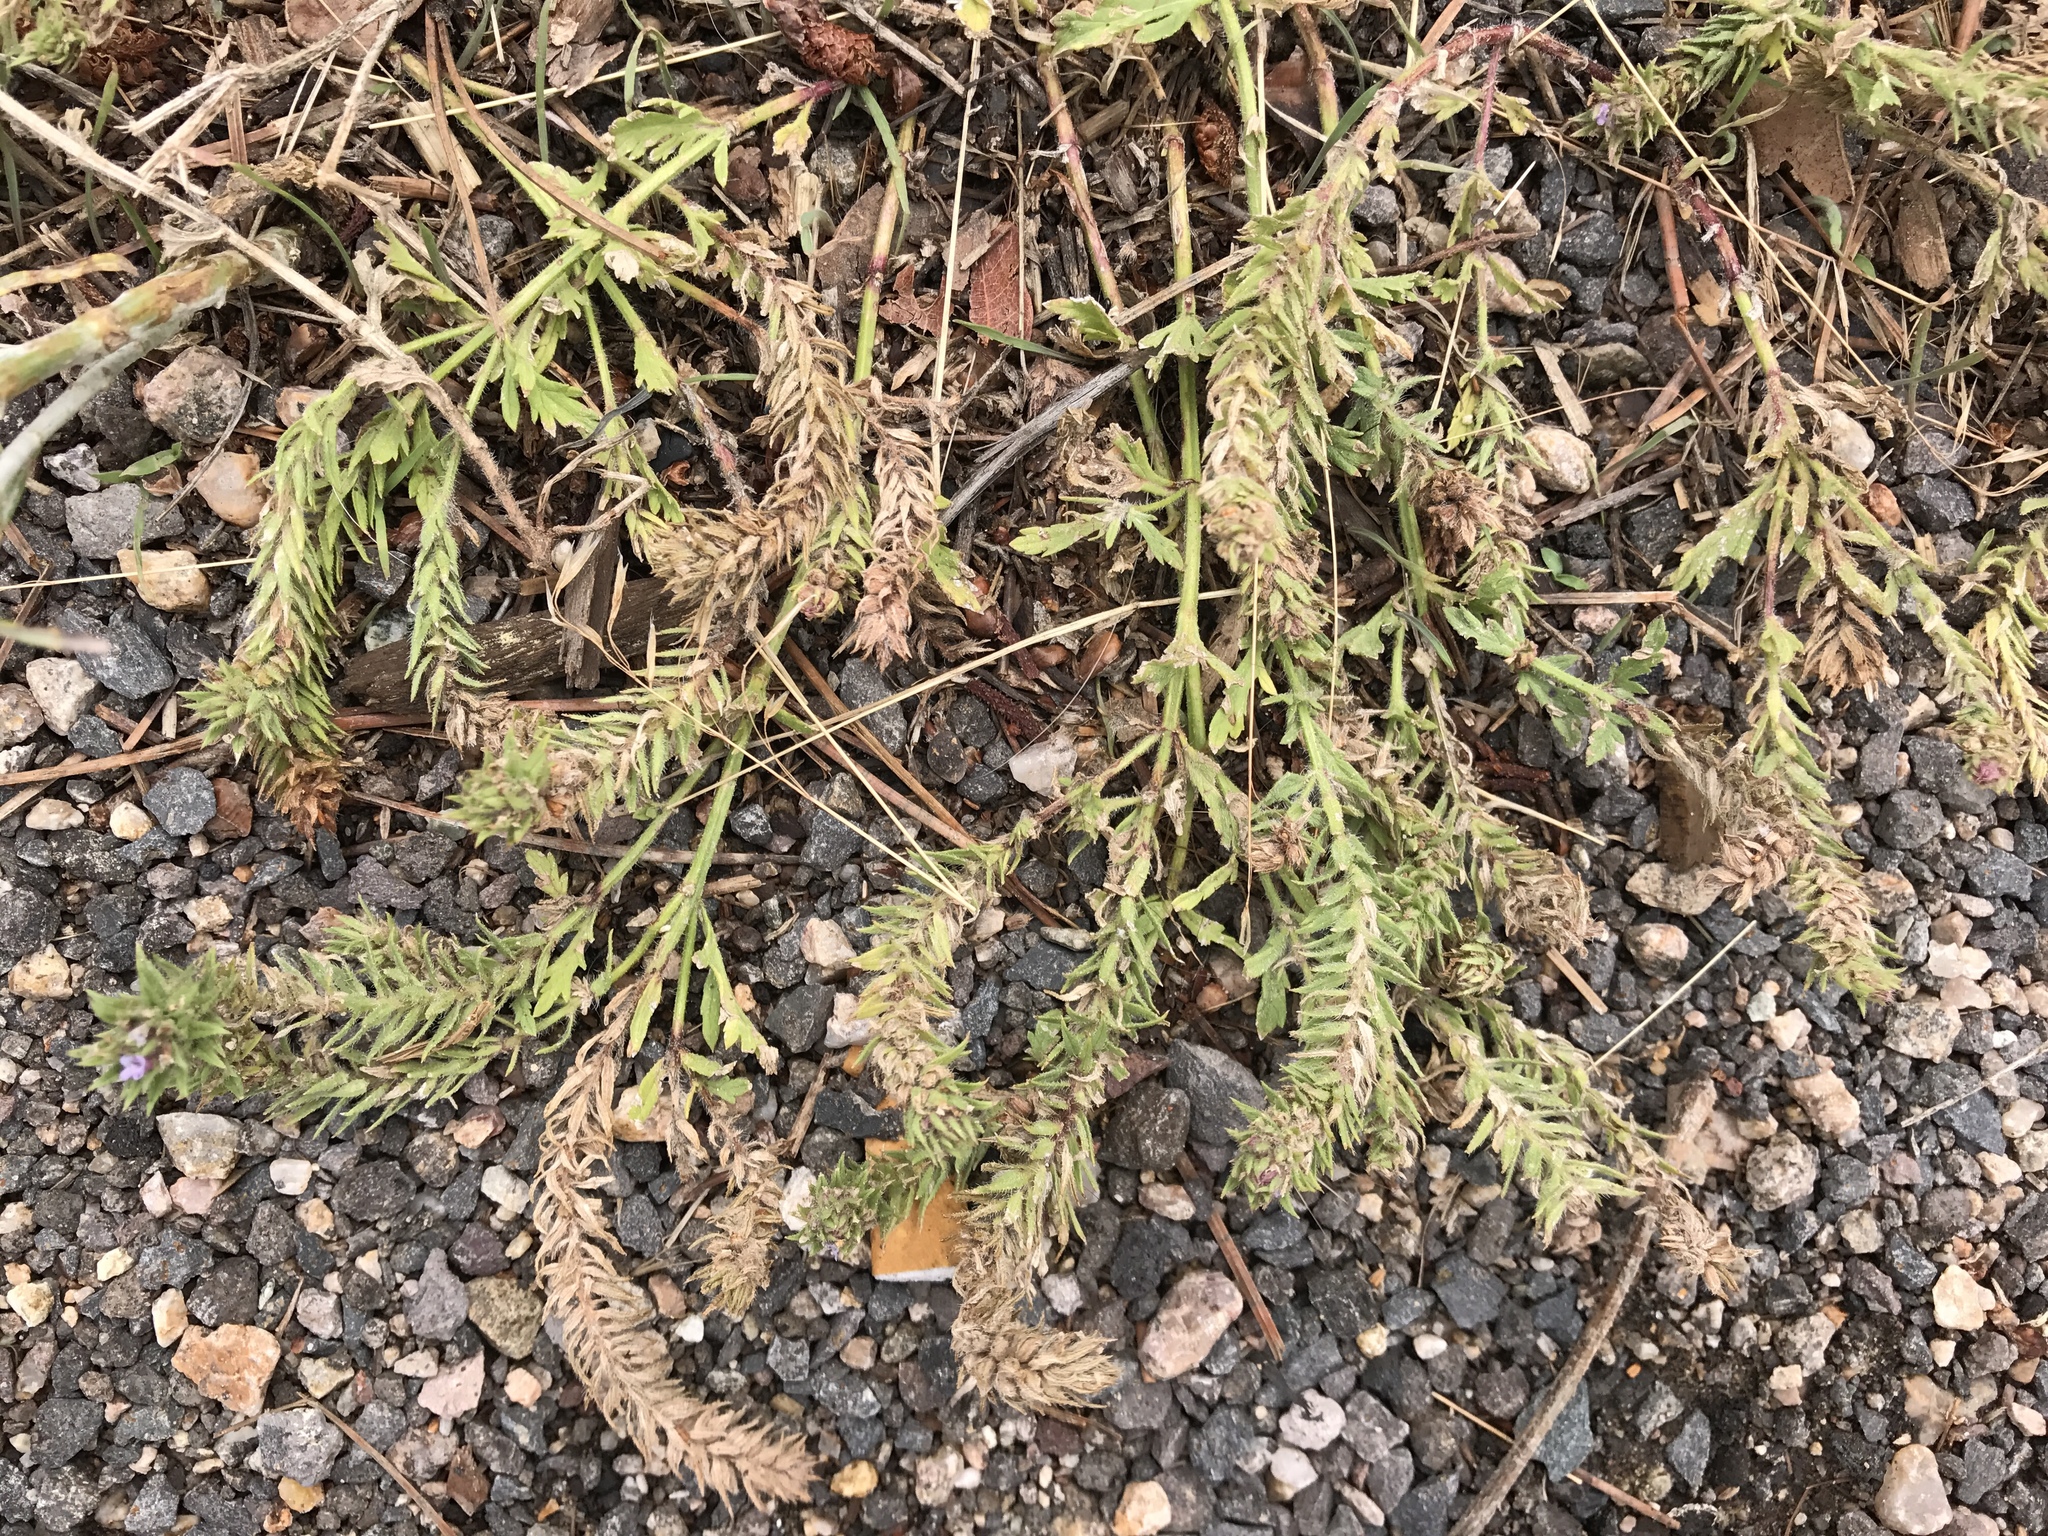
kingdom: Plantae
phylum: Tracheophyta
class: Magnoliopsida
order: Lamiales
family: Verbenaceae
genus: Verbena
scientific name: Verbena bracteata
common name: Bracted vervain
